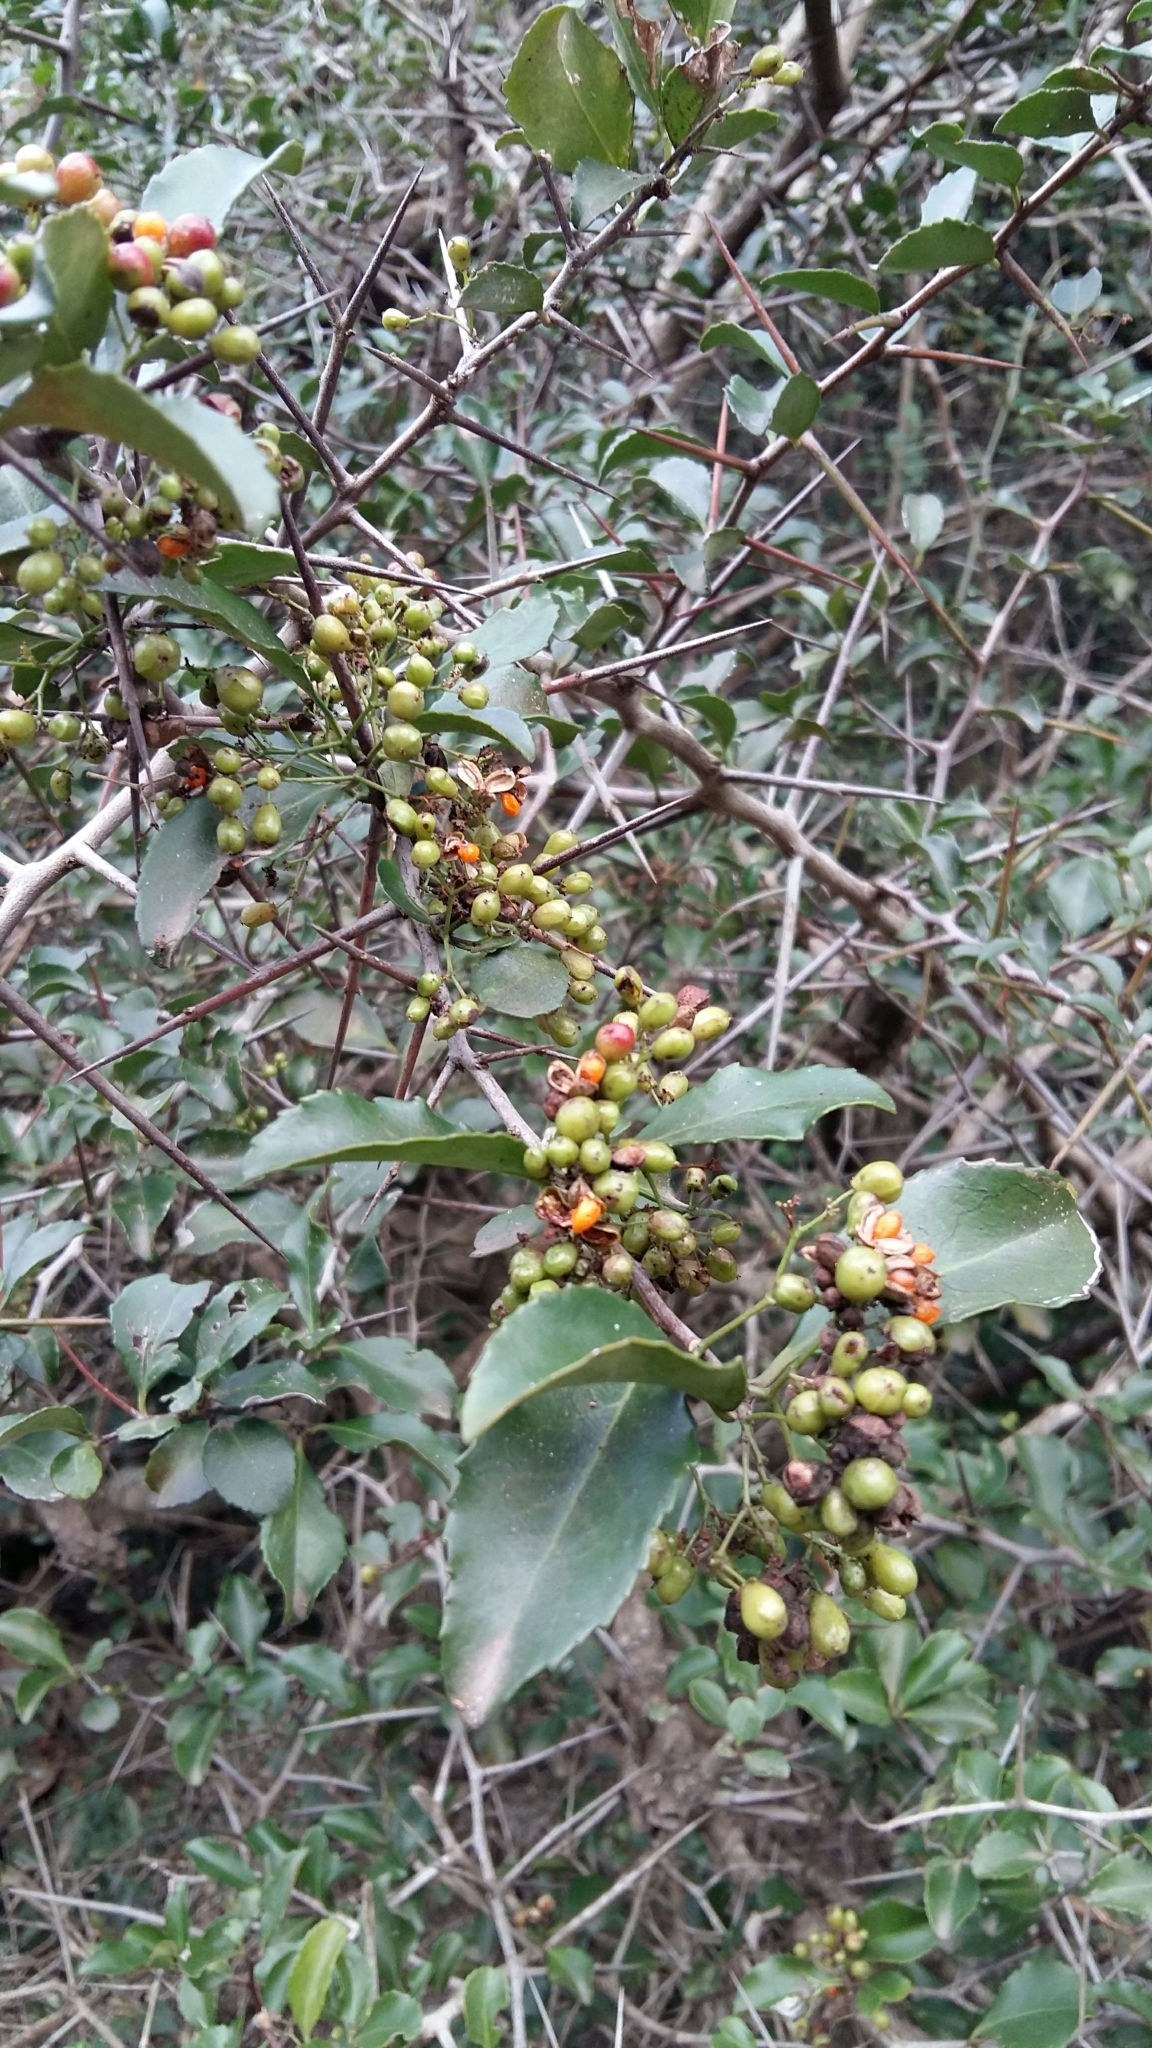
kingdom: Plantae
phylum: Tracheophyta
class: Magnoliopsida
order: Celastrales
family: Celastraceae
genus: Gymnosporia
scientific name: Gymnosporia nemorosa
